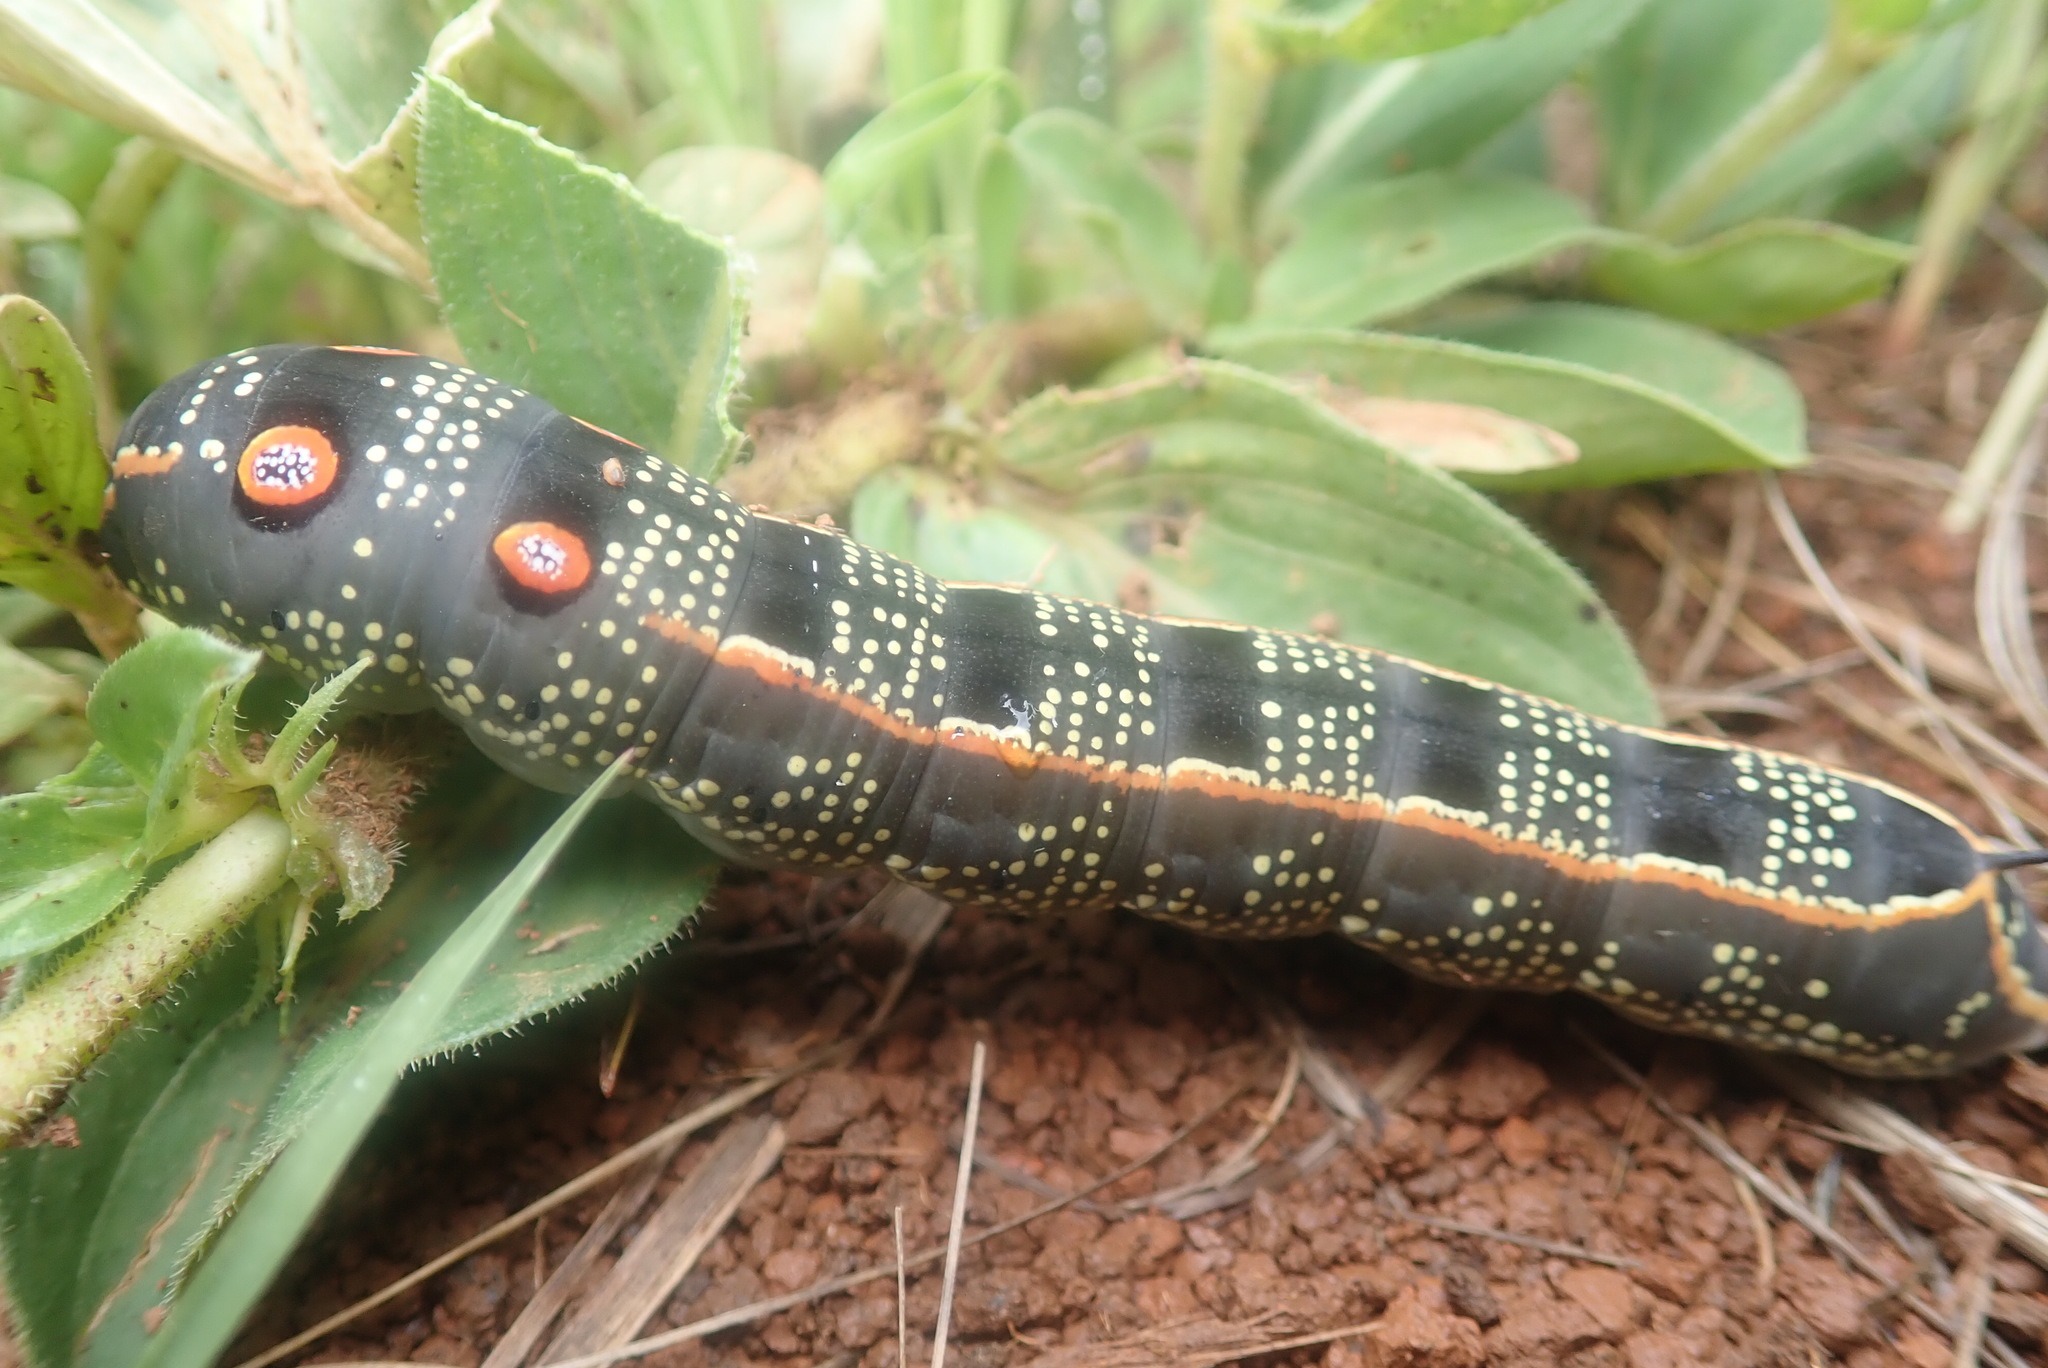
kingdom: Animalia
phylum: Arthropoda
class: Insecta
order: Lepidoptera
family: Sphingidae
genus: Basiothia
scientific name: Basiothia schenki
